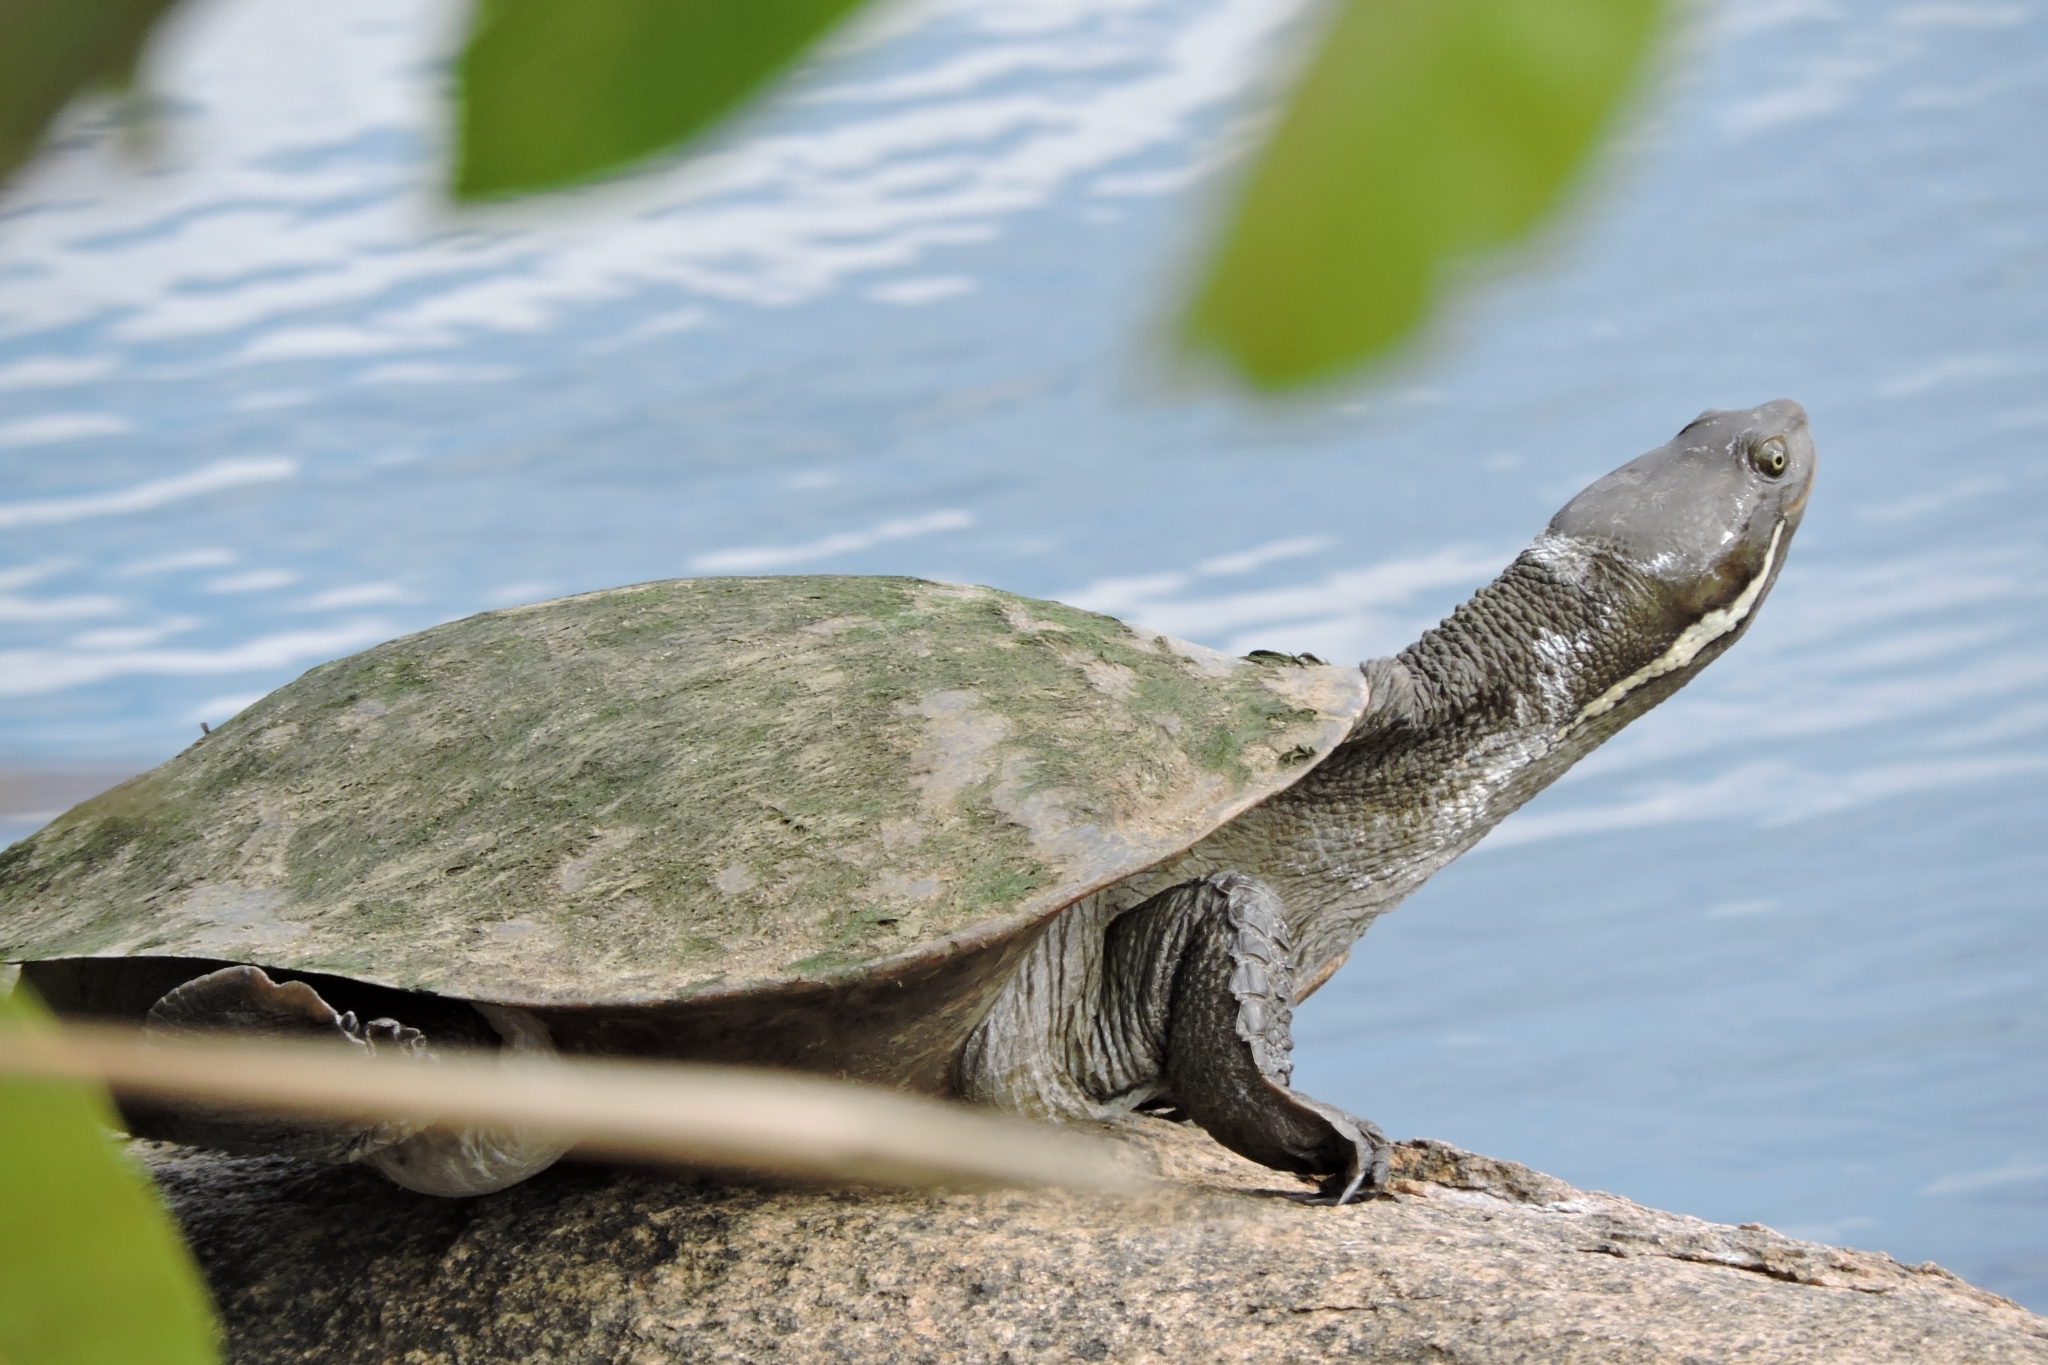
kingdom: Animalia
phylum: Chordata
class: Testudines
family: Chelidae
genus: Emydura
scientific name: Emydura macquarii
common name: Murray river turtle
